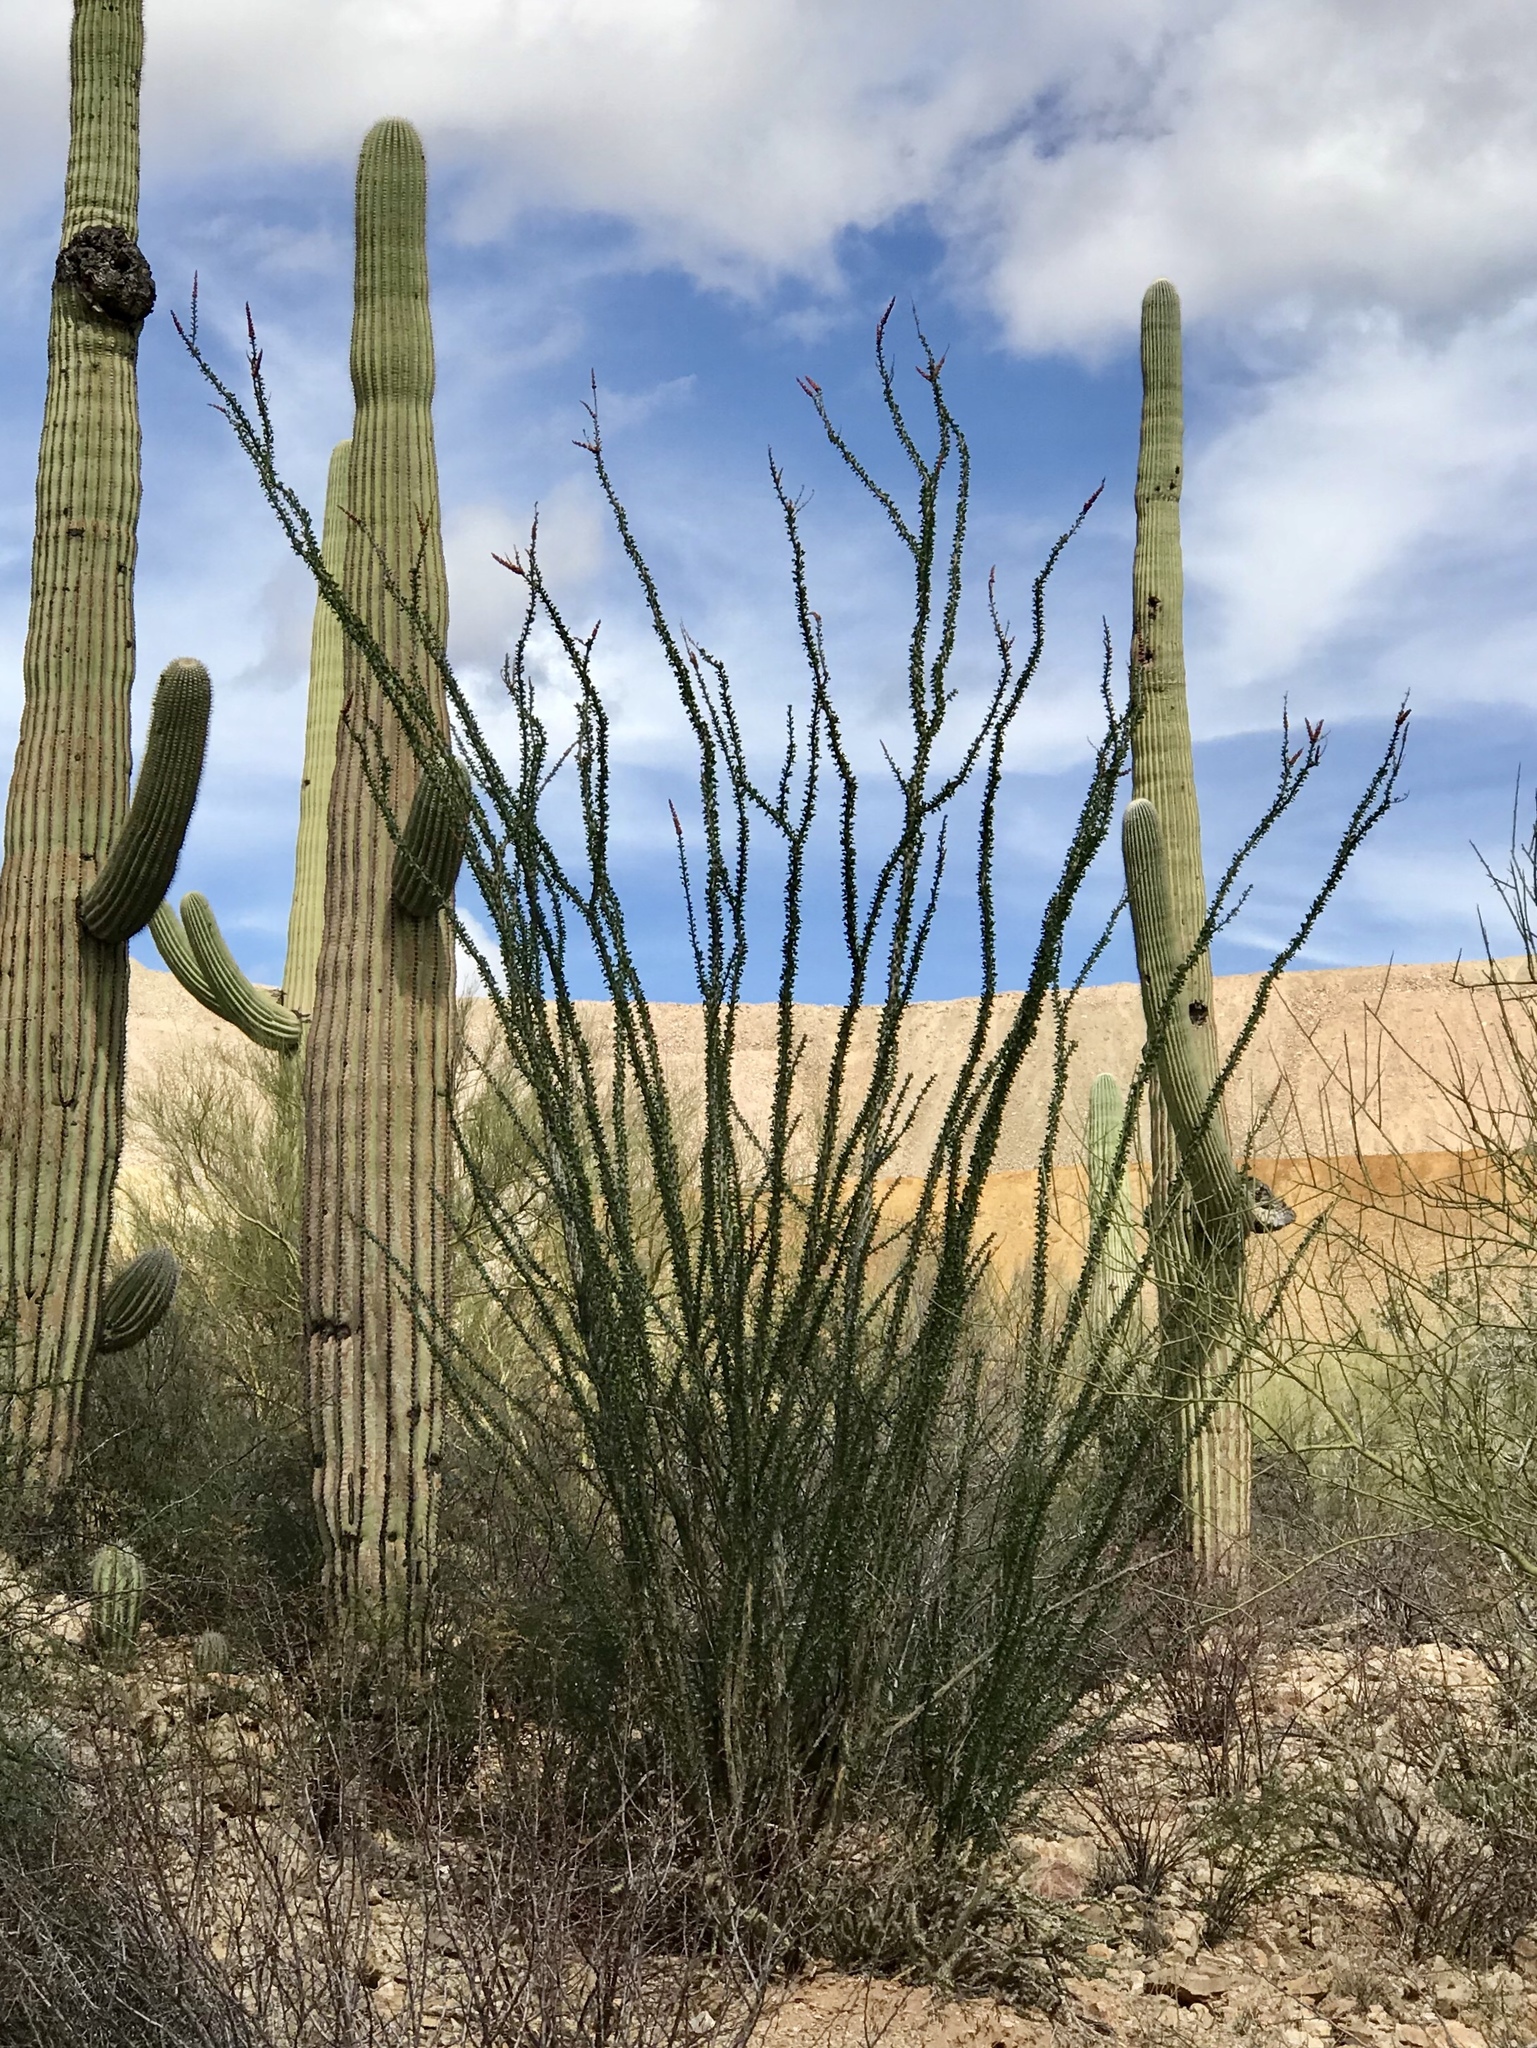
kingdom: Plantae
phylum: Tracheophyta
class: Magnoliopsida
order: Ericales
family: Fouquieriaceae
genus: Fouquieria
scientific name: Fouquieria splendens
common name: Vine-cactus
